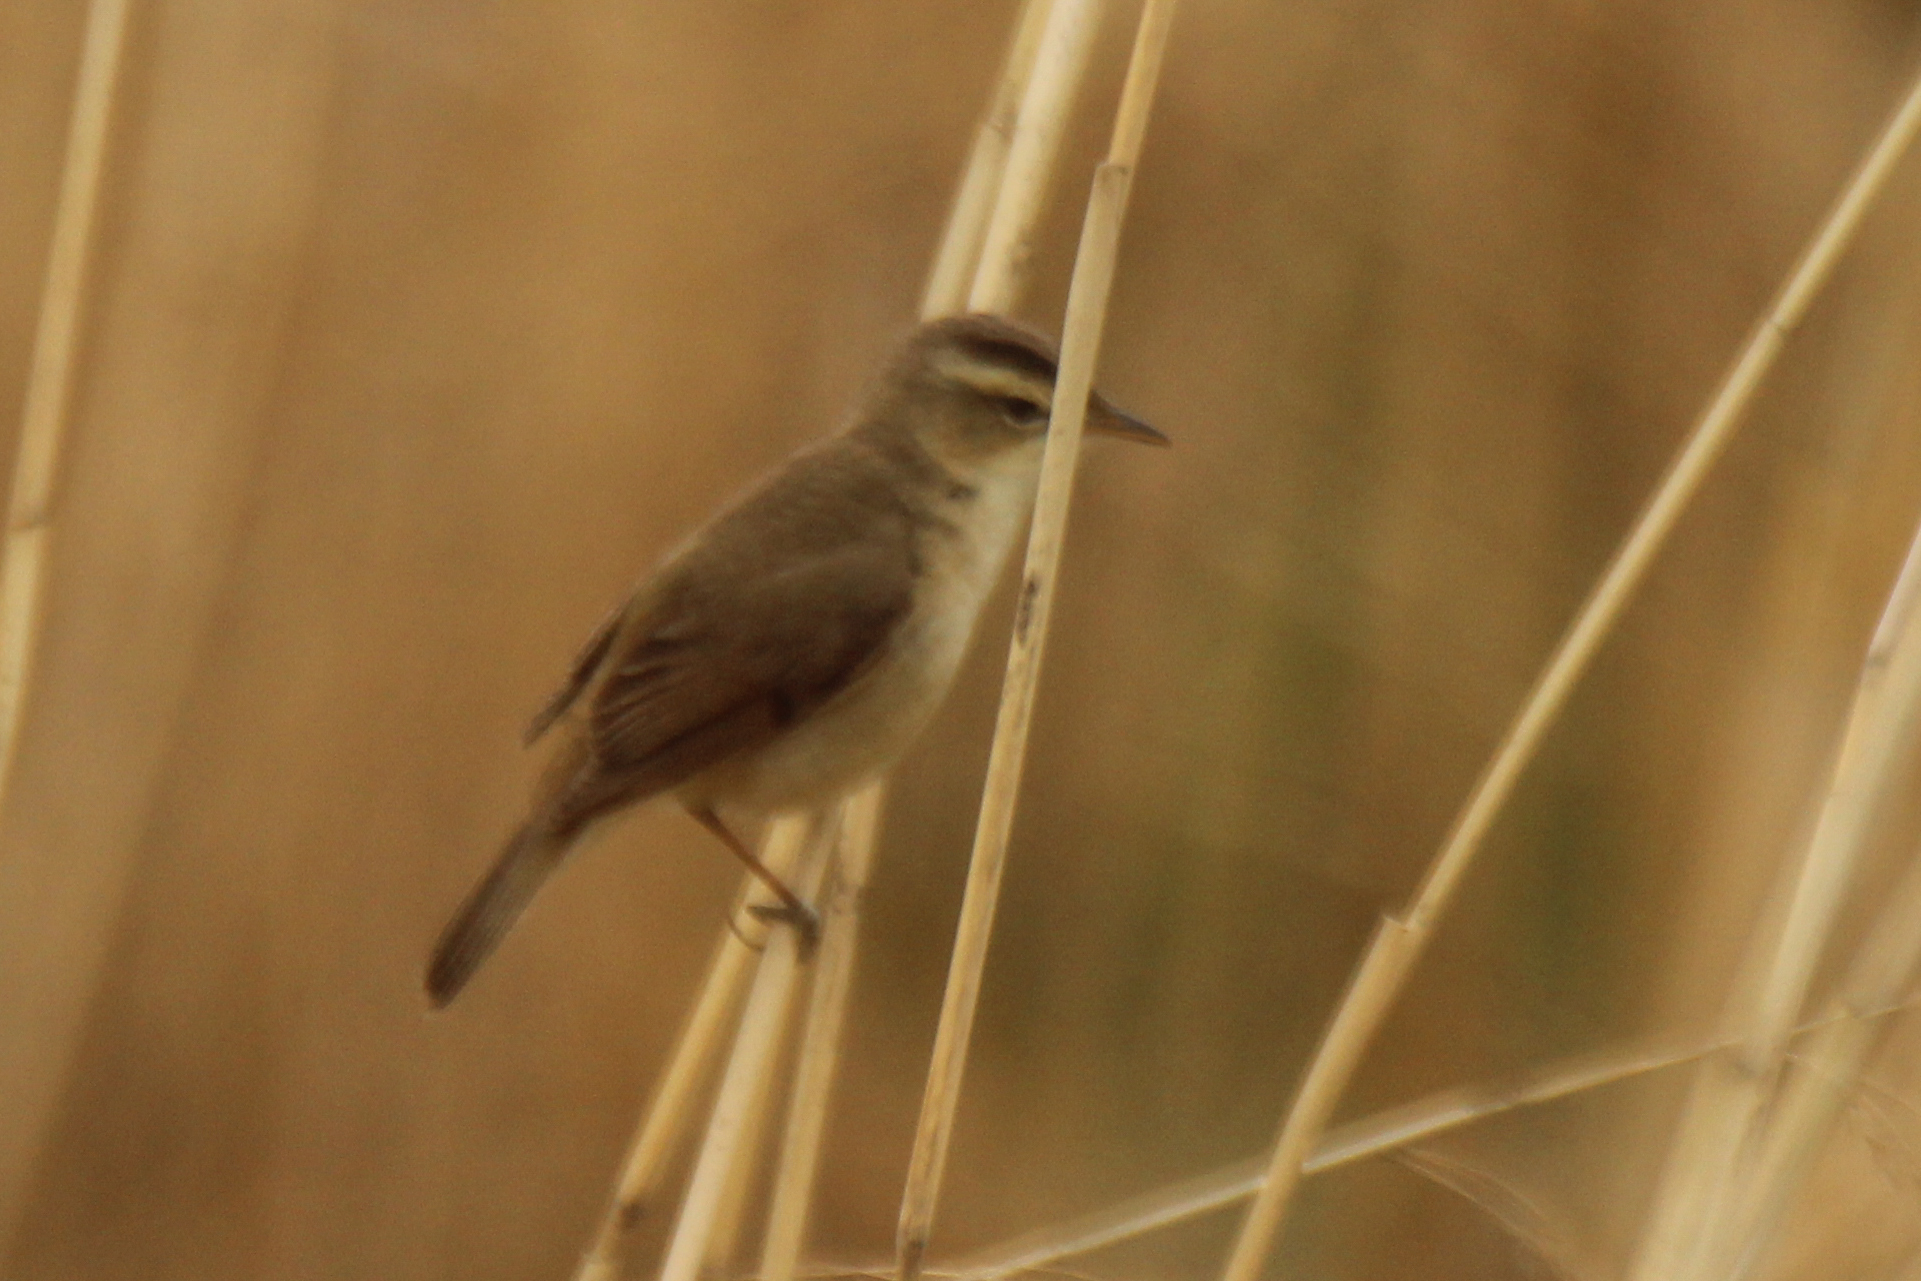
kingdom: Animalia
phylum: Chordata
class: Aves
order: Passeriformes
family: Acrocephalidae
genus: Acrocephalus
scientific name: Acrocephalus bistrigiceps
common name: Black-browed reed warbler
